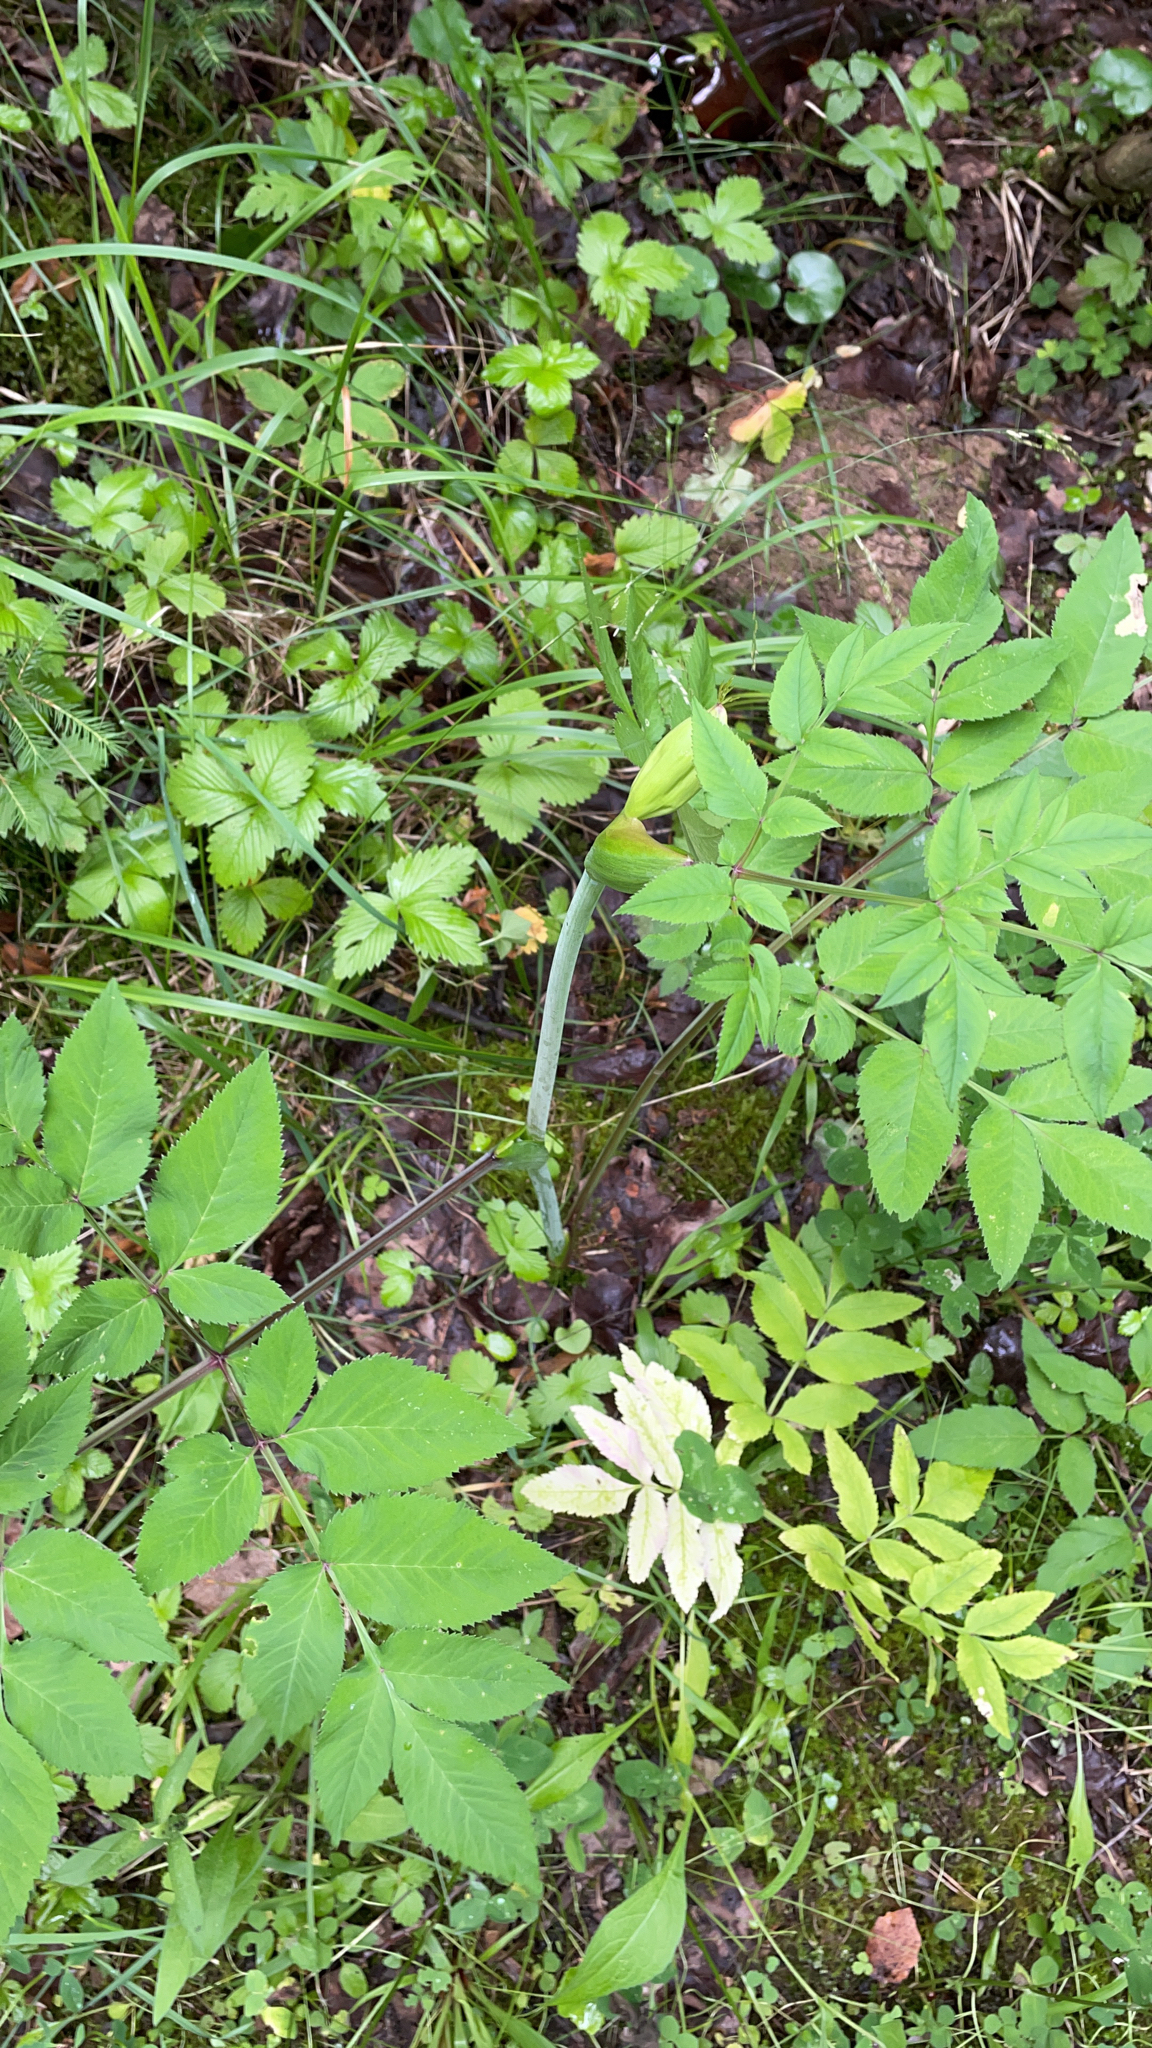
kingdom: Plantae
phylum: Tracheophyta
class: Magnoliopsida
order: Apiales
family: Apiaceae
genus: Angelica
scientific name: Angelica sylvestris
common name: Wild angelica
